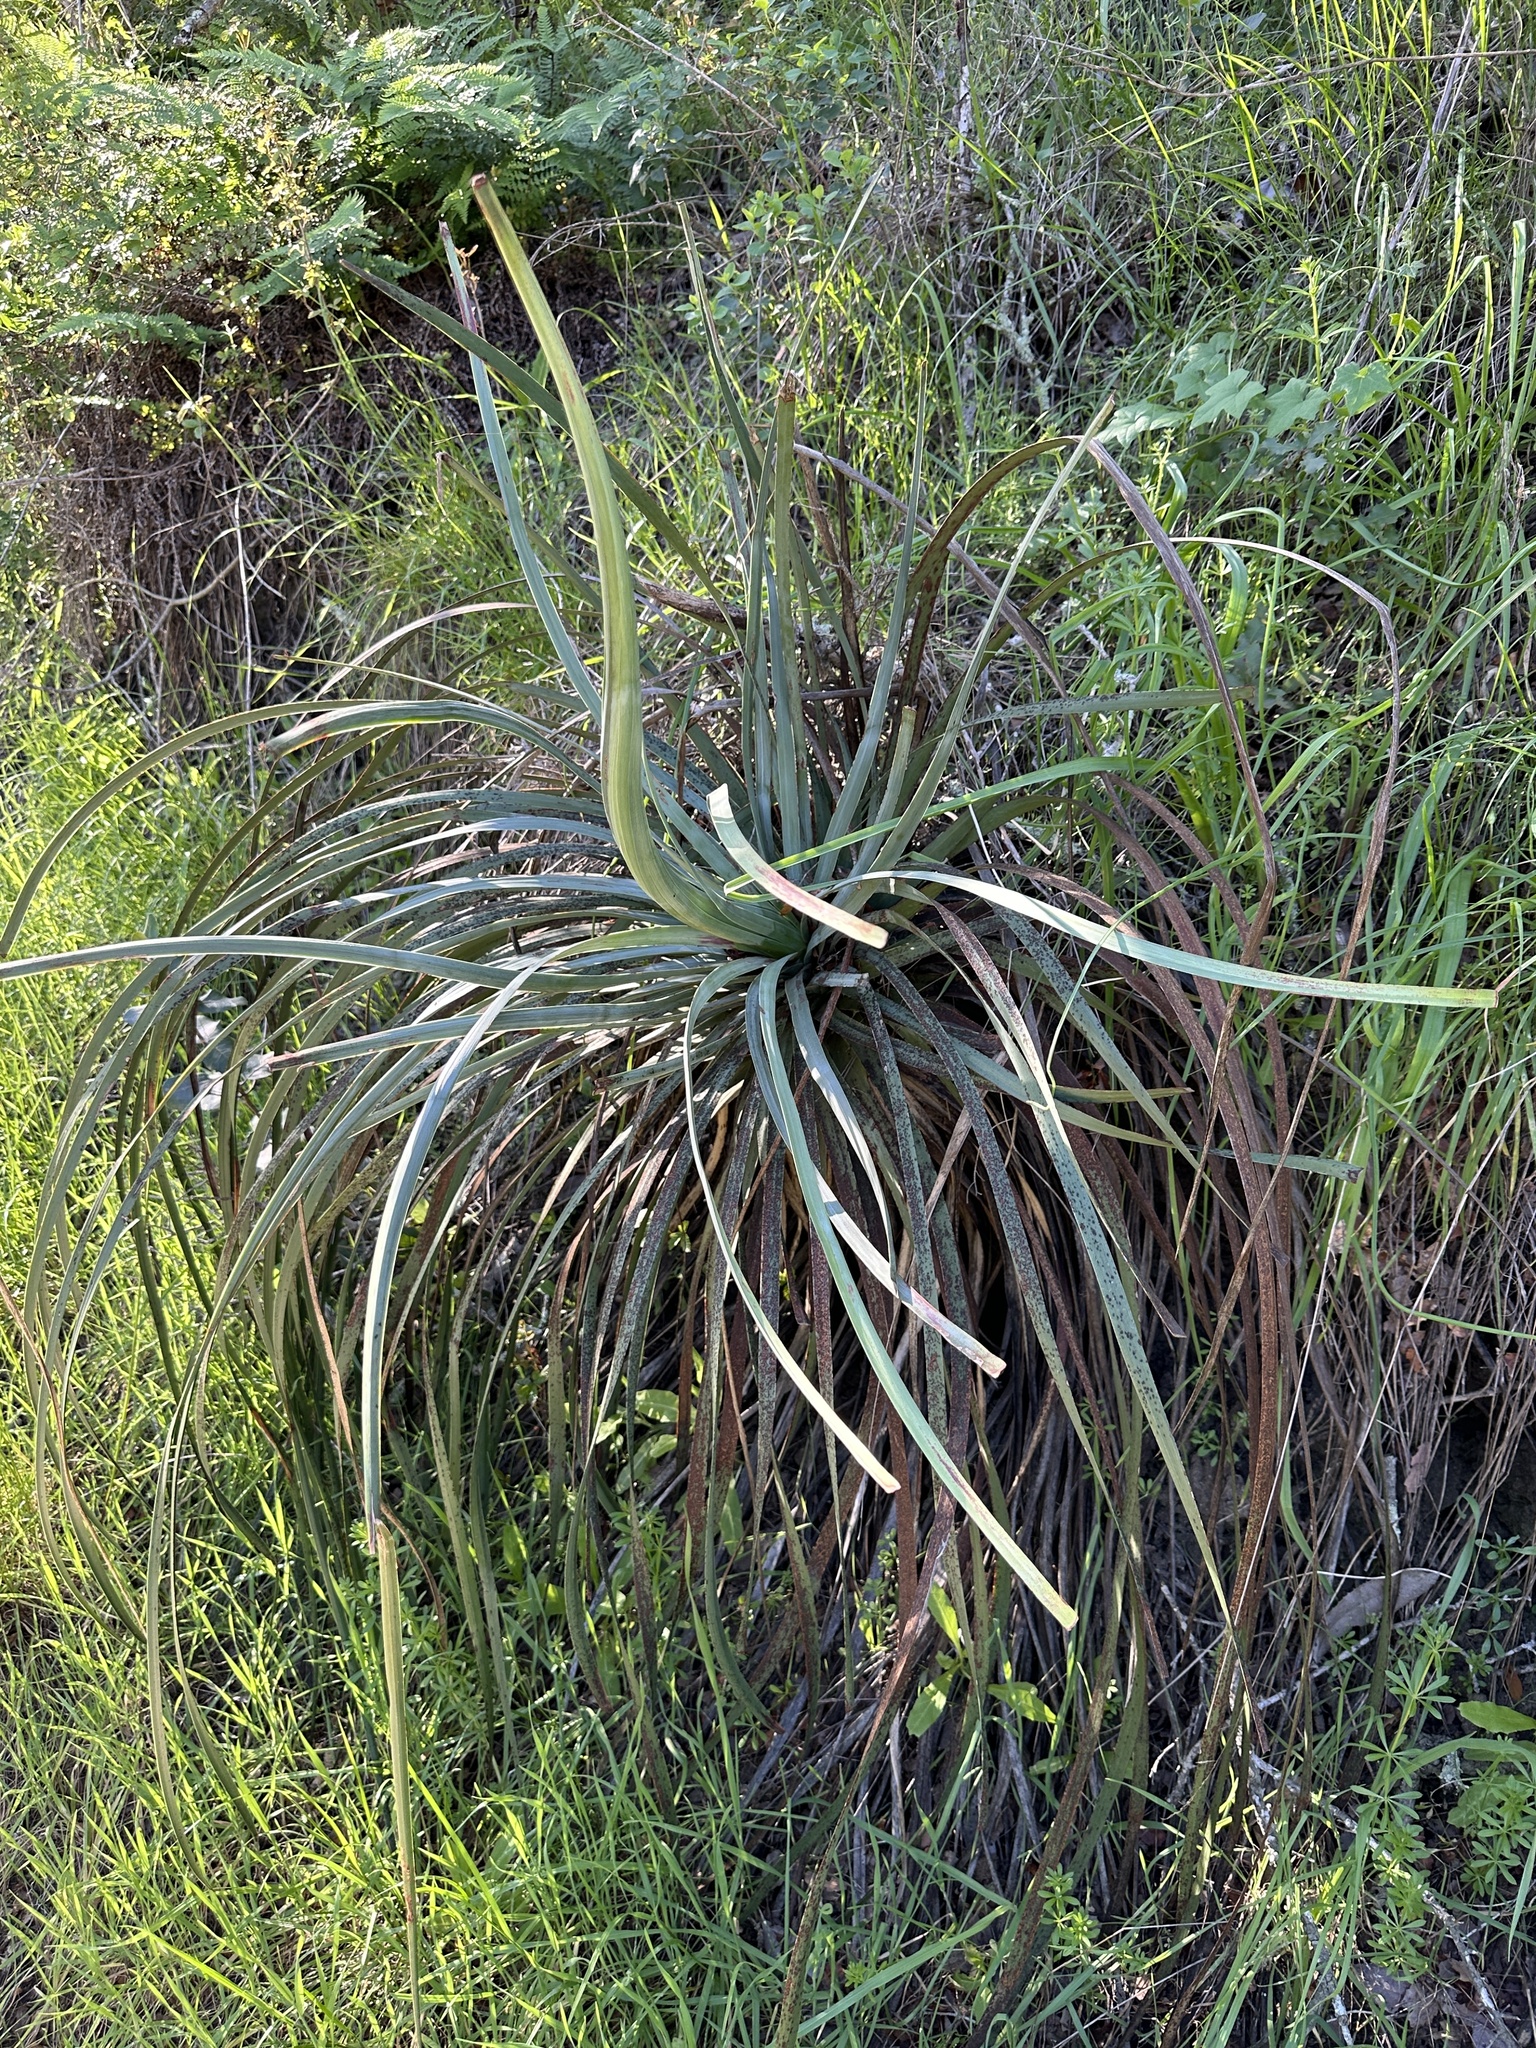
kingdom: Plantae
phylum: Tracheophyta
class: Liliopsida
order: Asparagales
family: Asparagaceae
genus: Hesperoyucca
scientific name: Hesperoyucca whipplei
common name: Our lord's-candle
